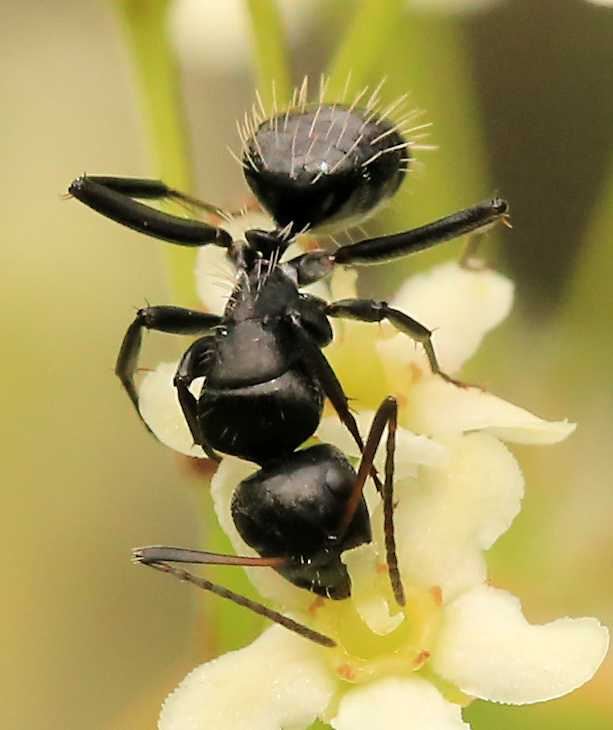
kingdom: Animalia
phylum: Arthropoda
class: Insecta
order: Hymenoptera
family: Formicidae
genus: Camponotus
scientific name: Camponotus niveosetosus
